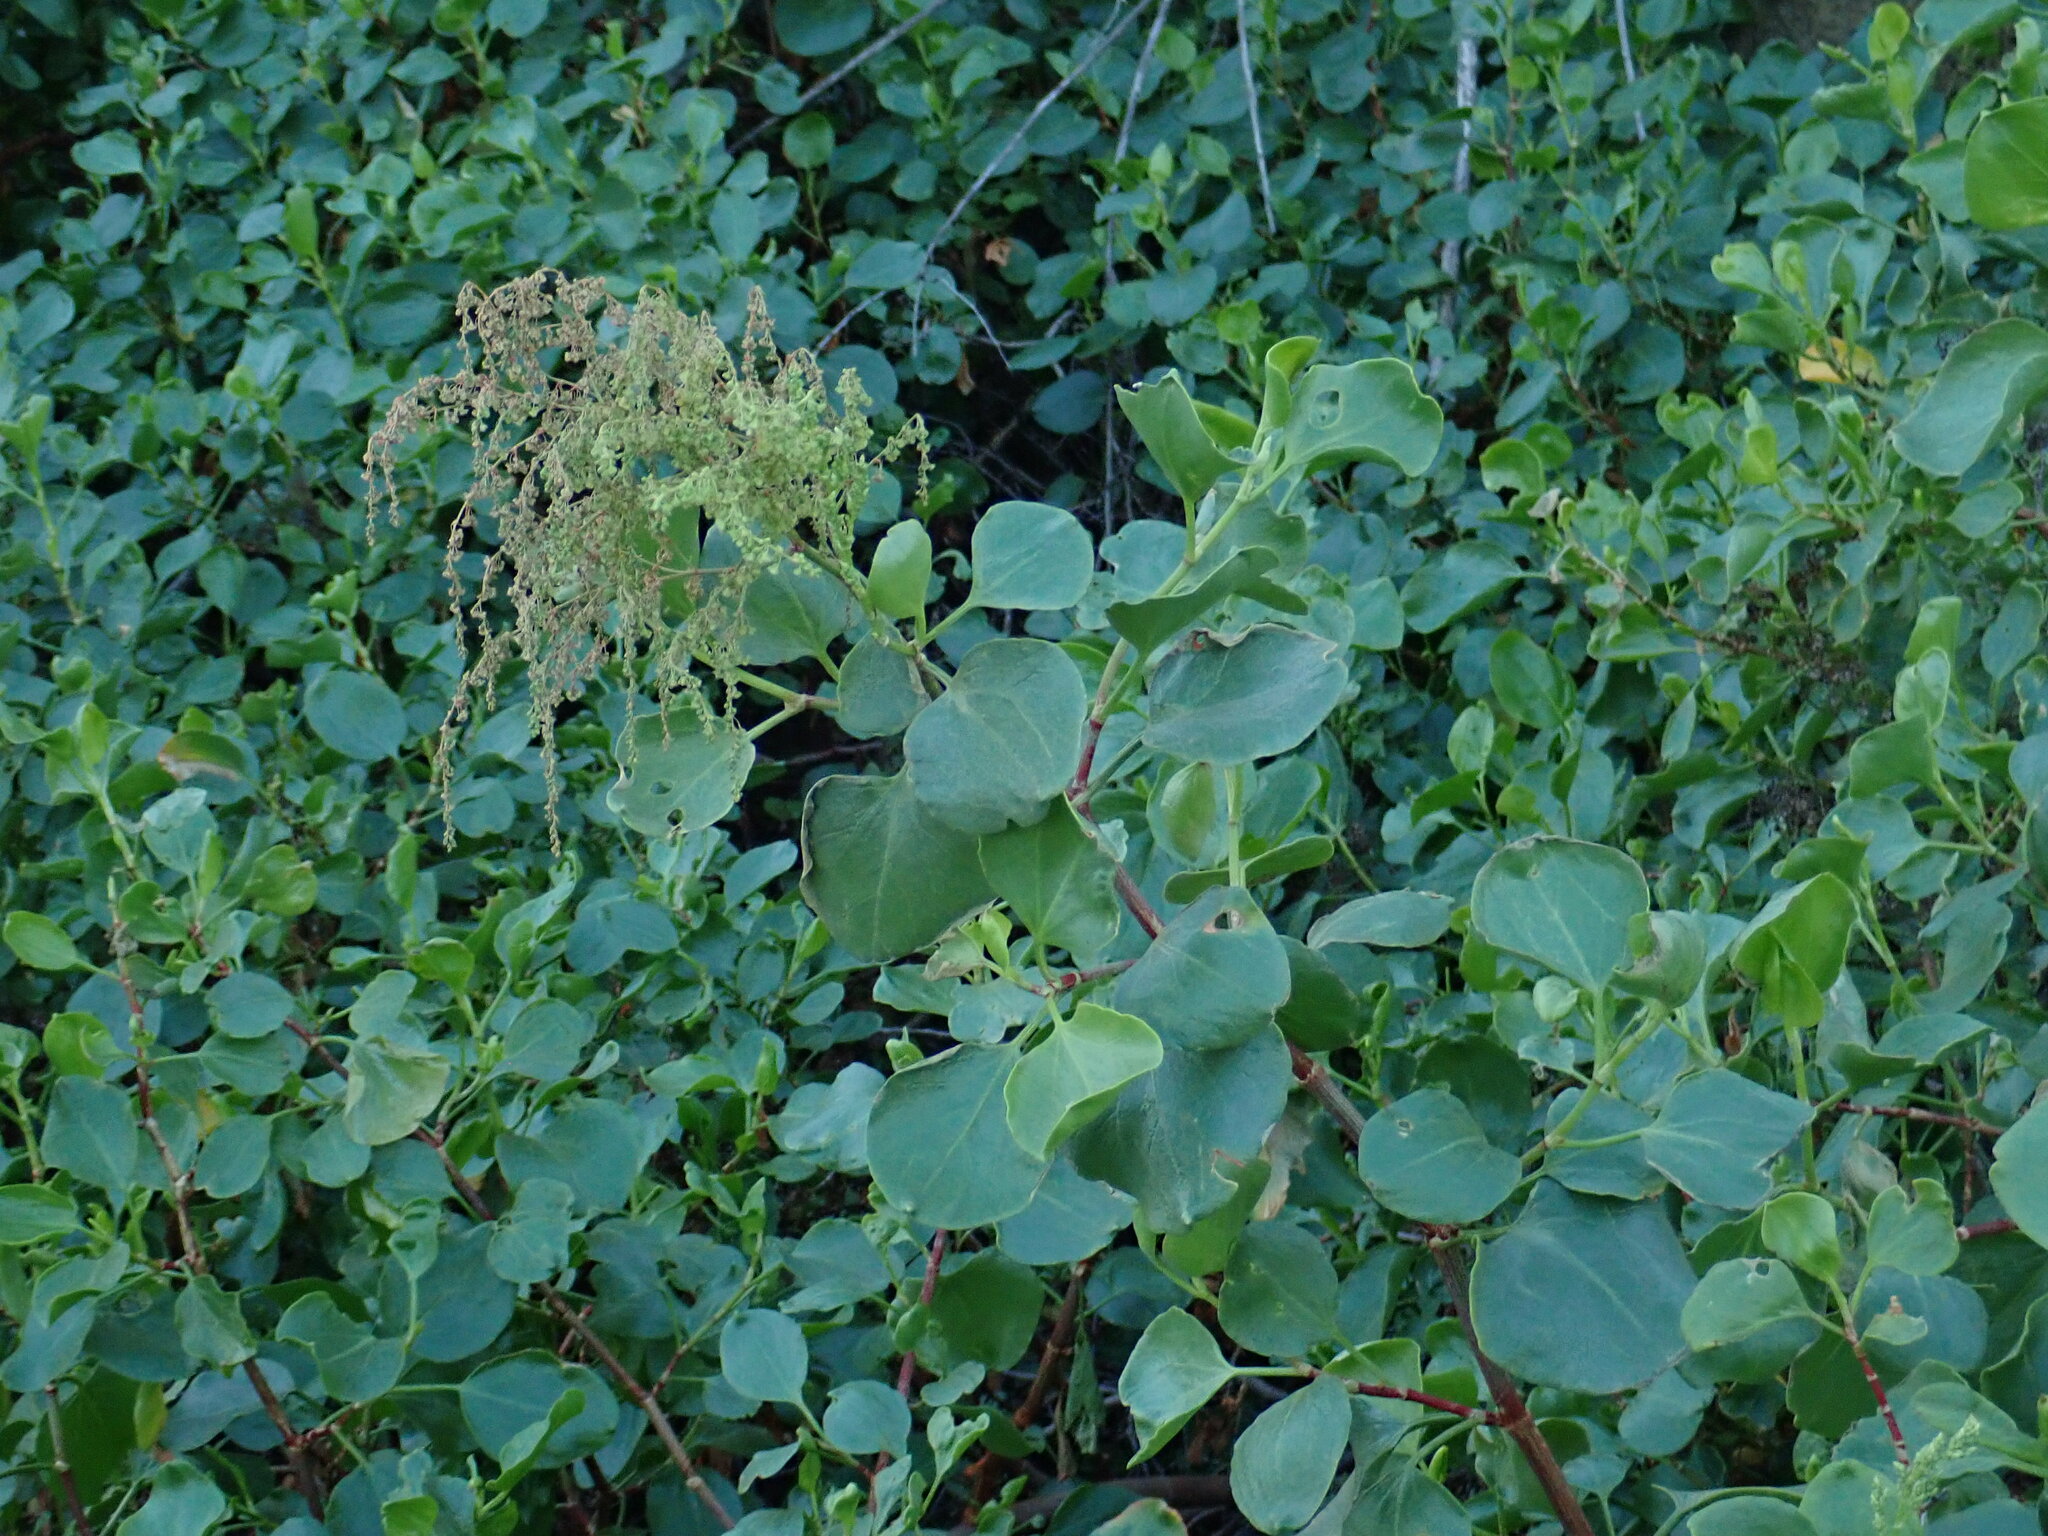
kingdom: Plantae
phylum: Tracheophyta
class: Magnoliopsida
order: Caryophyllales
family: Polygonaceae
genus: Rumex
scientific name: Rumex lunaria
